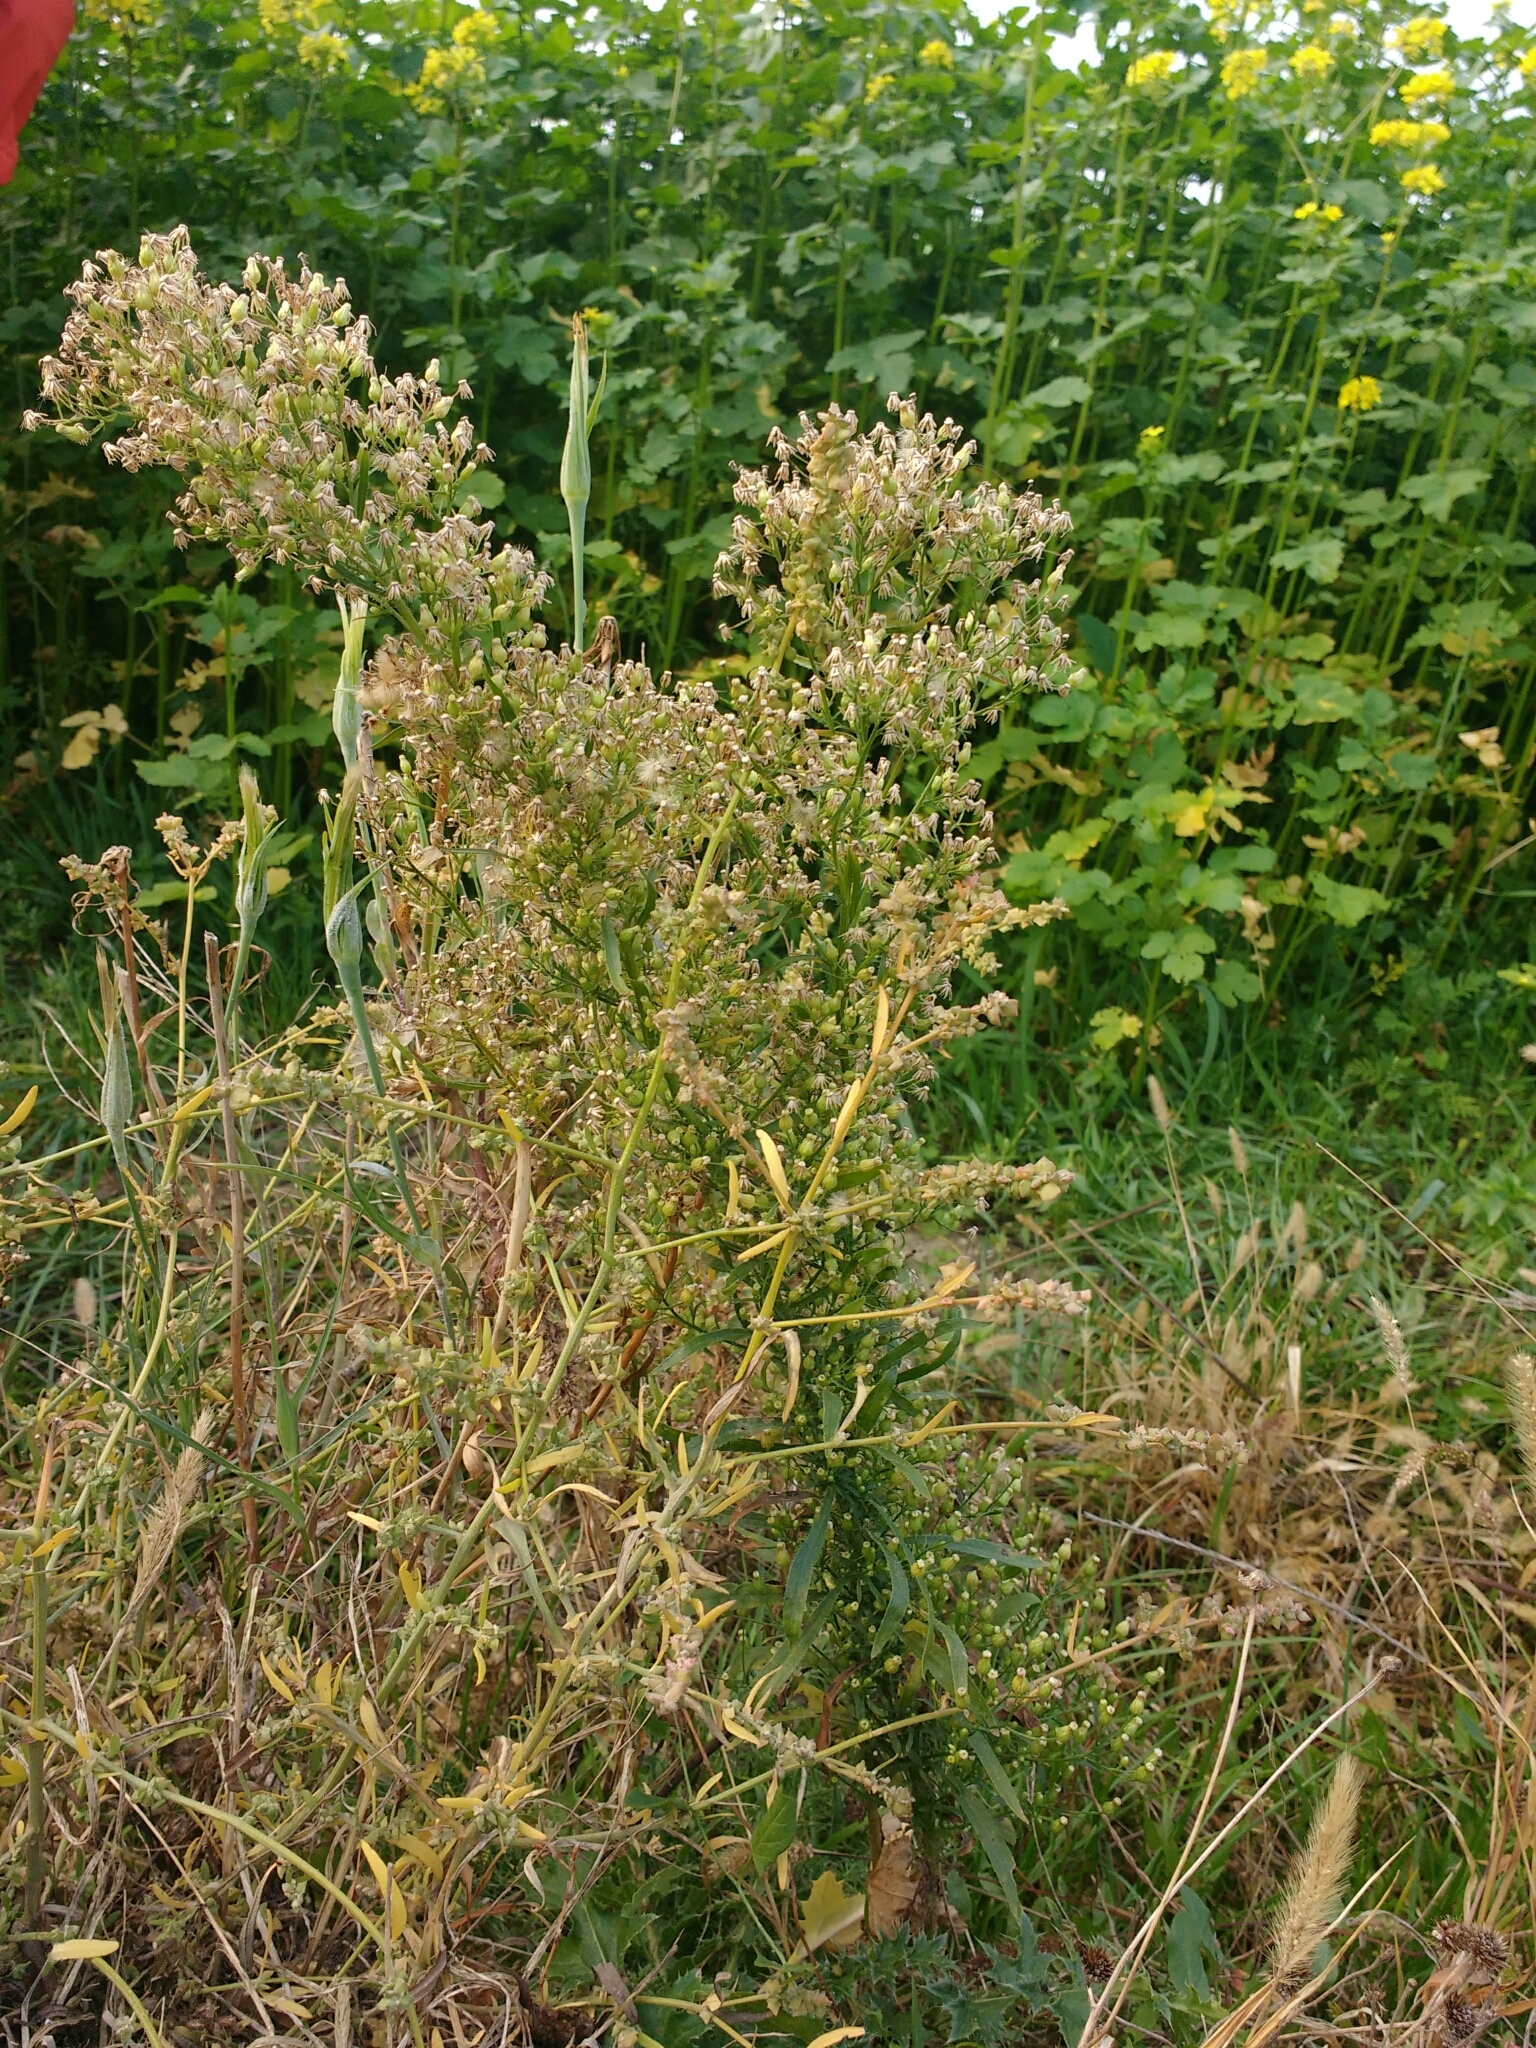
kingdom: Plantae
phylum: Tracheophyta
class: Magnoliopsida
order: Asterales
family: Asteraceae
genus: Erigeron
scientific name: Erigeron canadensis
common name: Canadian fleabane
